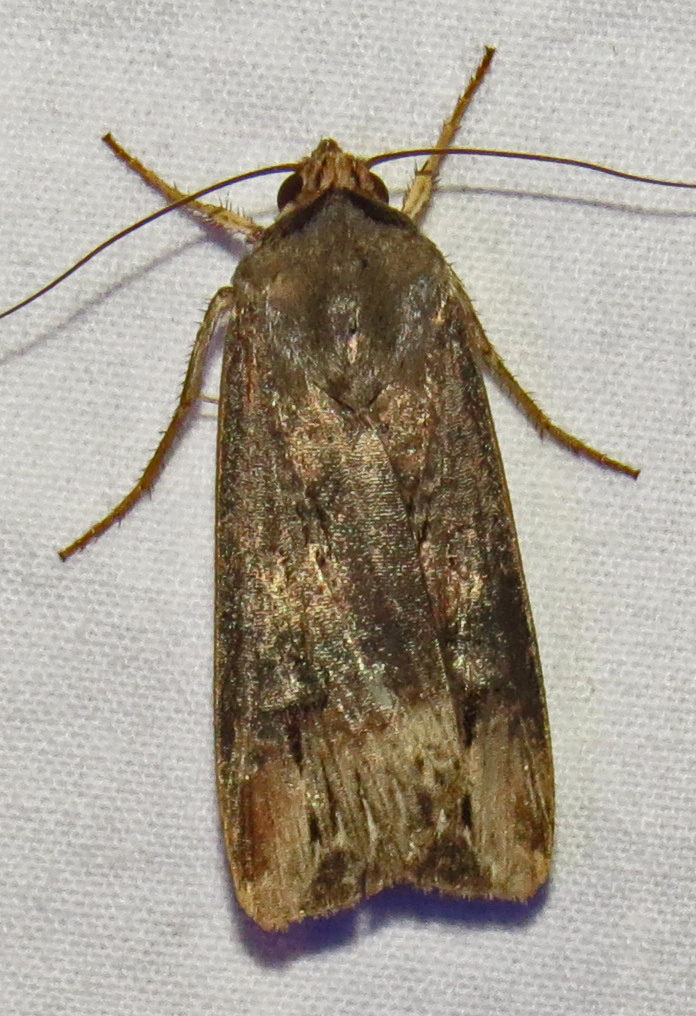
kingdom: Animalia
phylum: Arthropoda
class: Insecta
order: Lepidoptera
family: Noctuidae
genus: Agrotis
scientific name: Agrotis ipsilon
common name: Dark sword-grass
